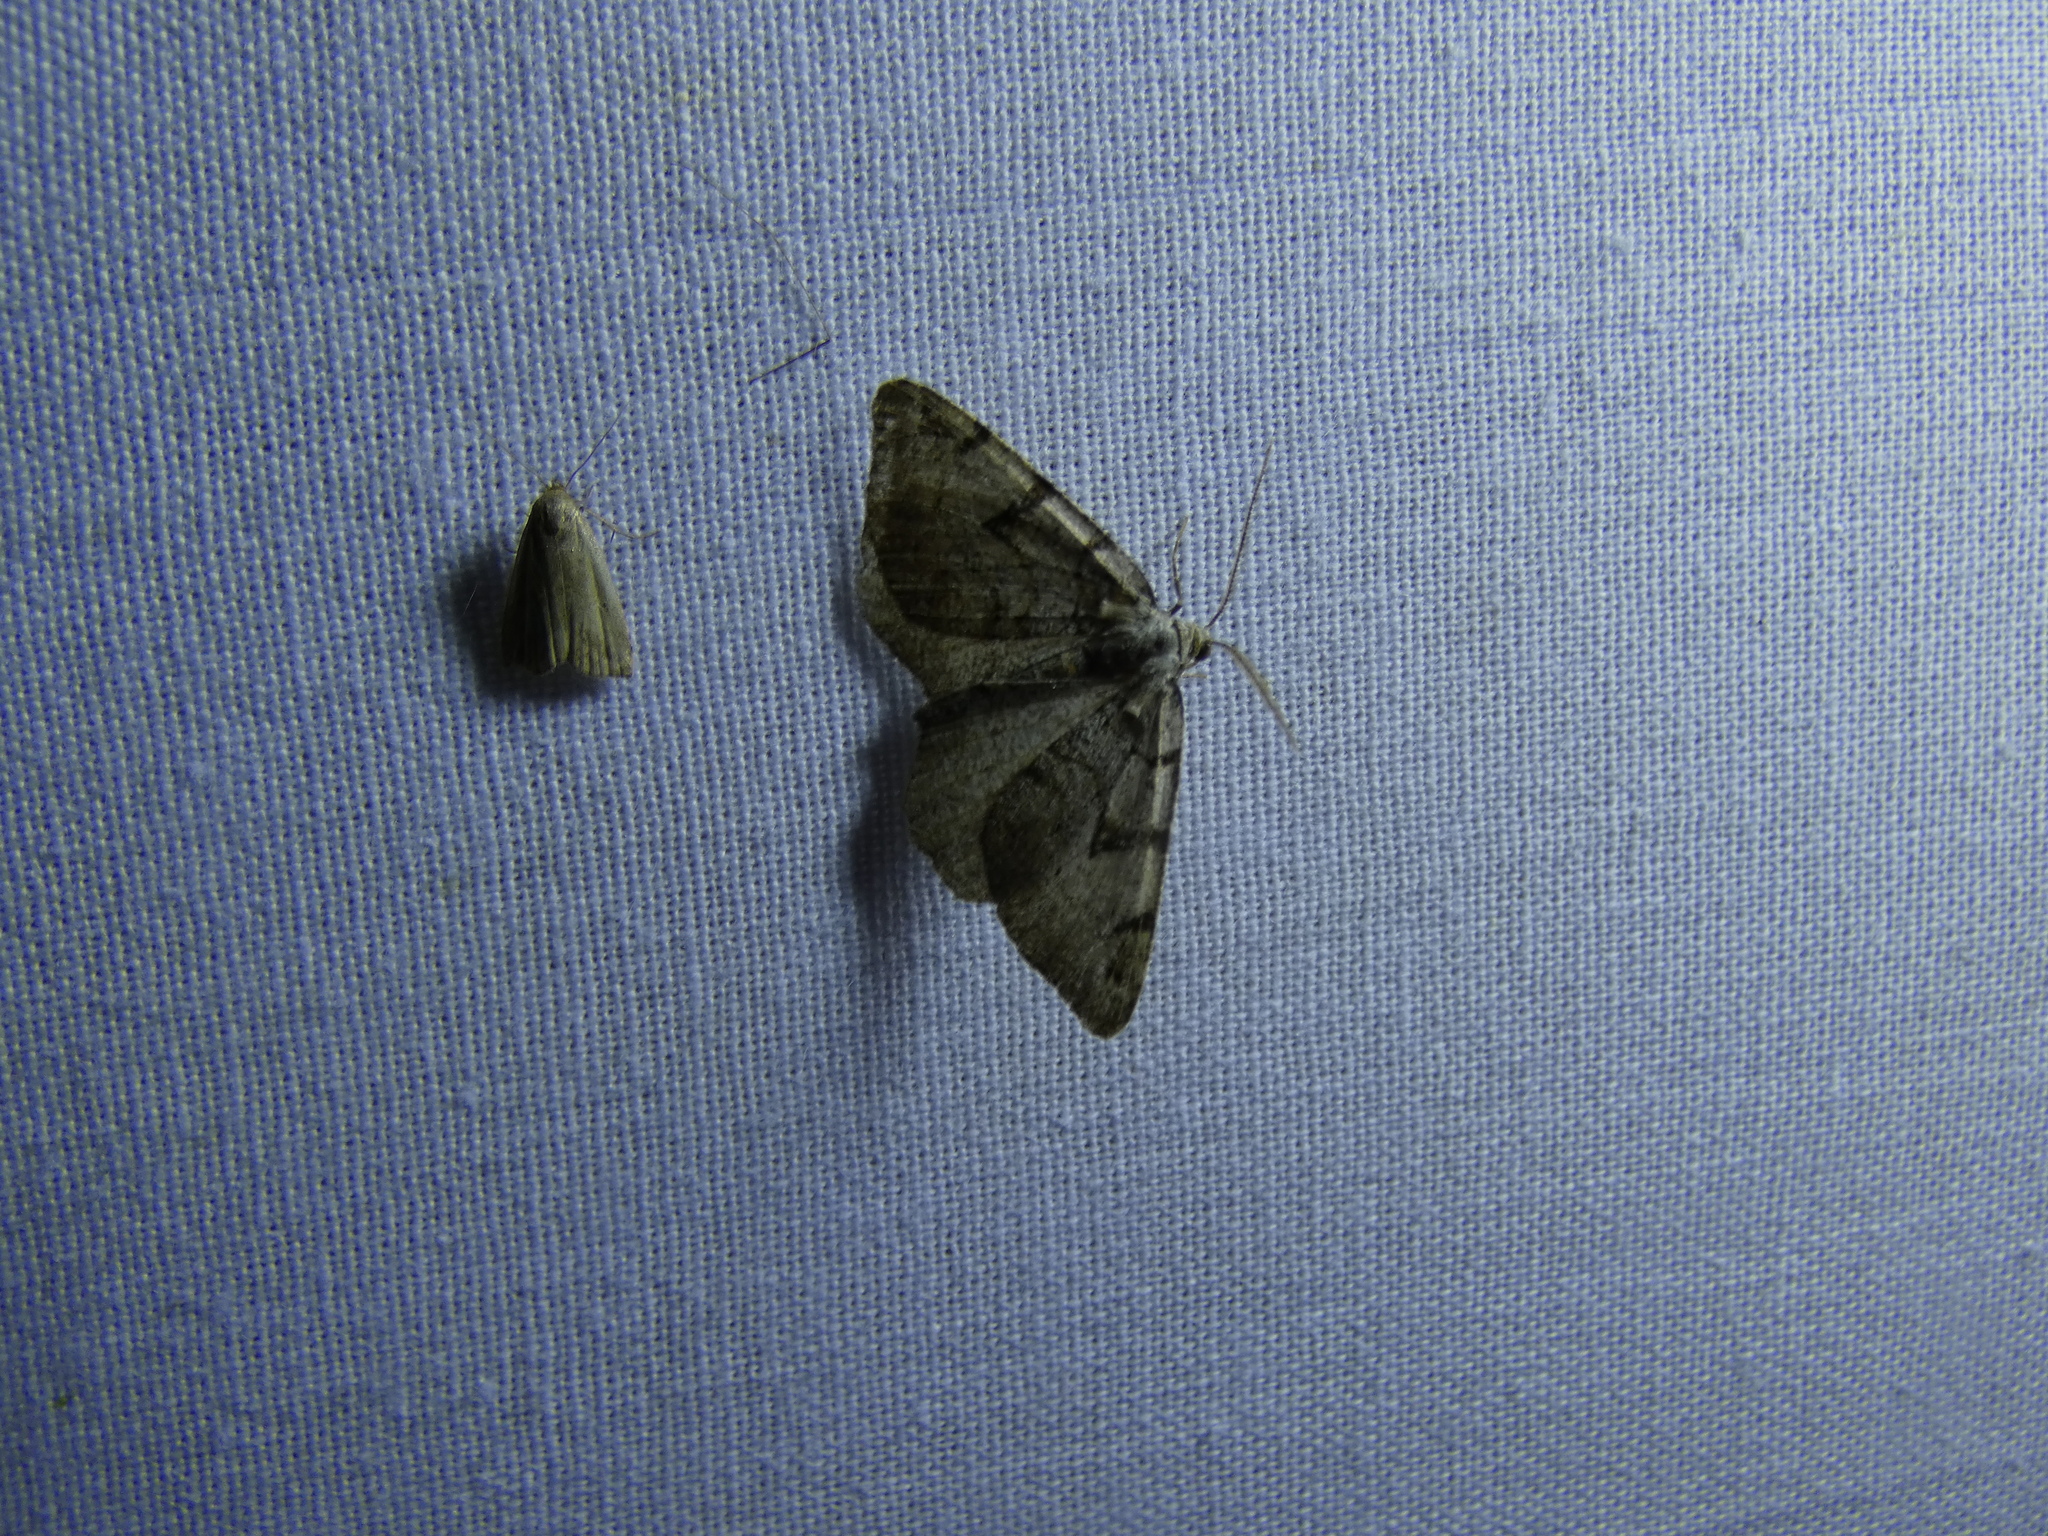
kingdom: Animalia
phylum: Arthropoda
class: Insecta
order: Lepidoptera
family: Geometridae
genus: Macaria
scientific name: Macaria wauaria
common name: V-moth
